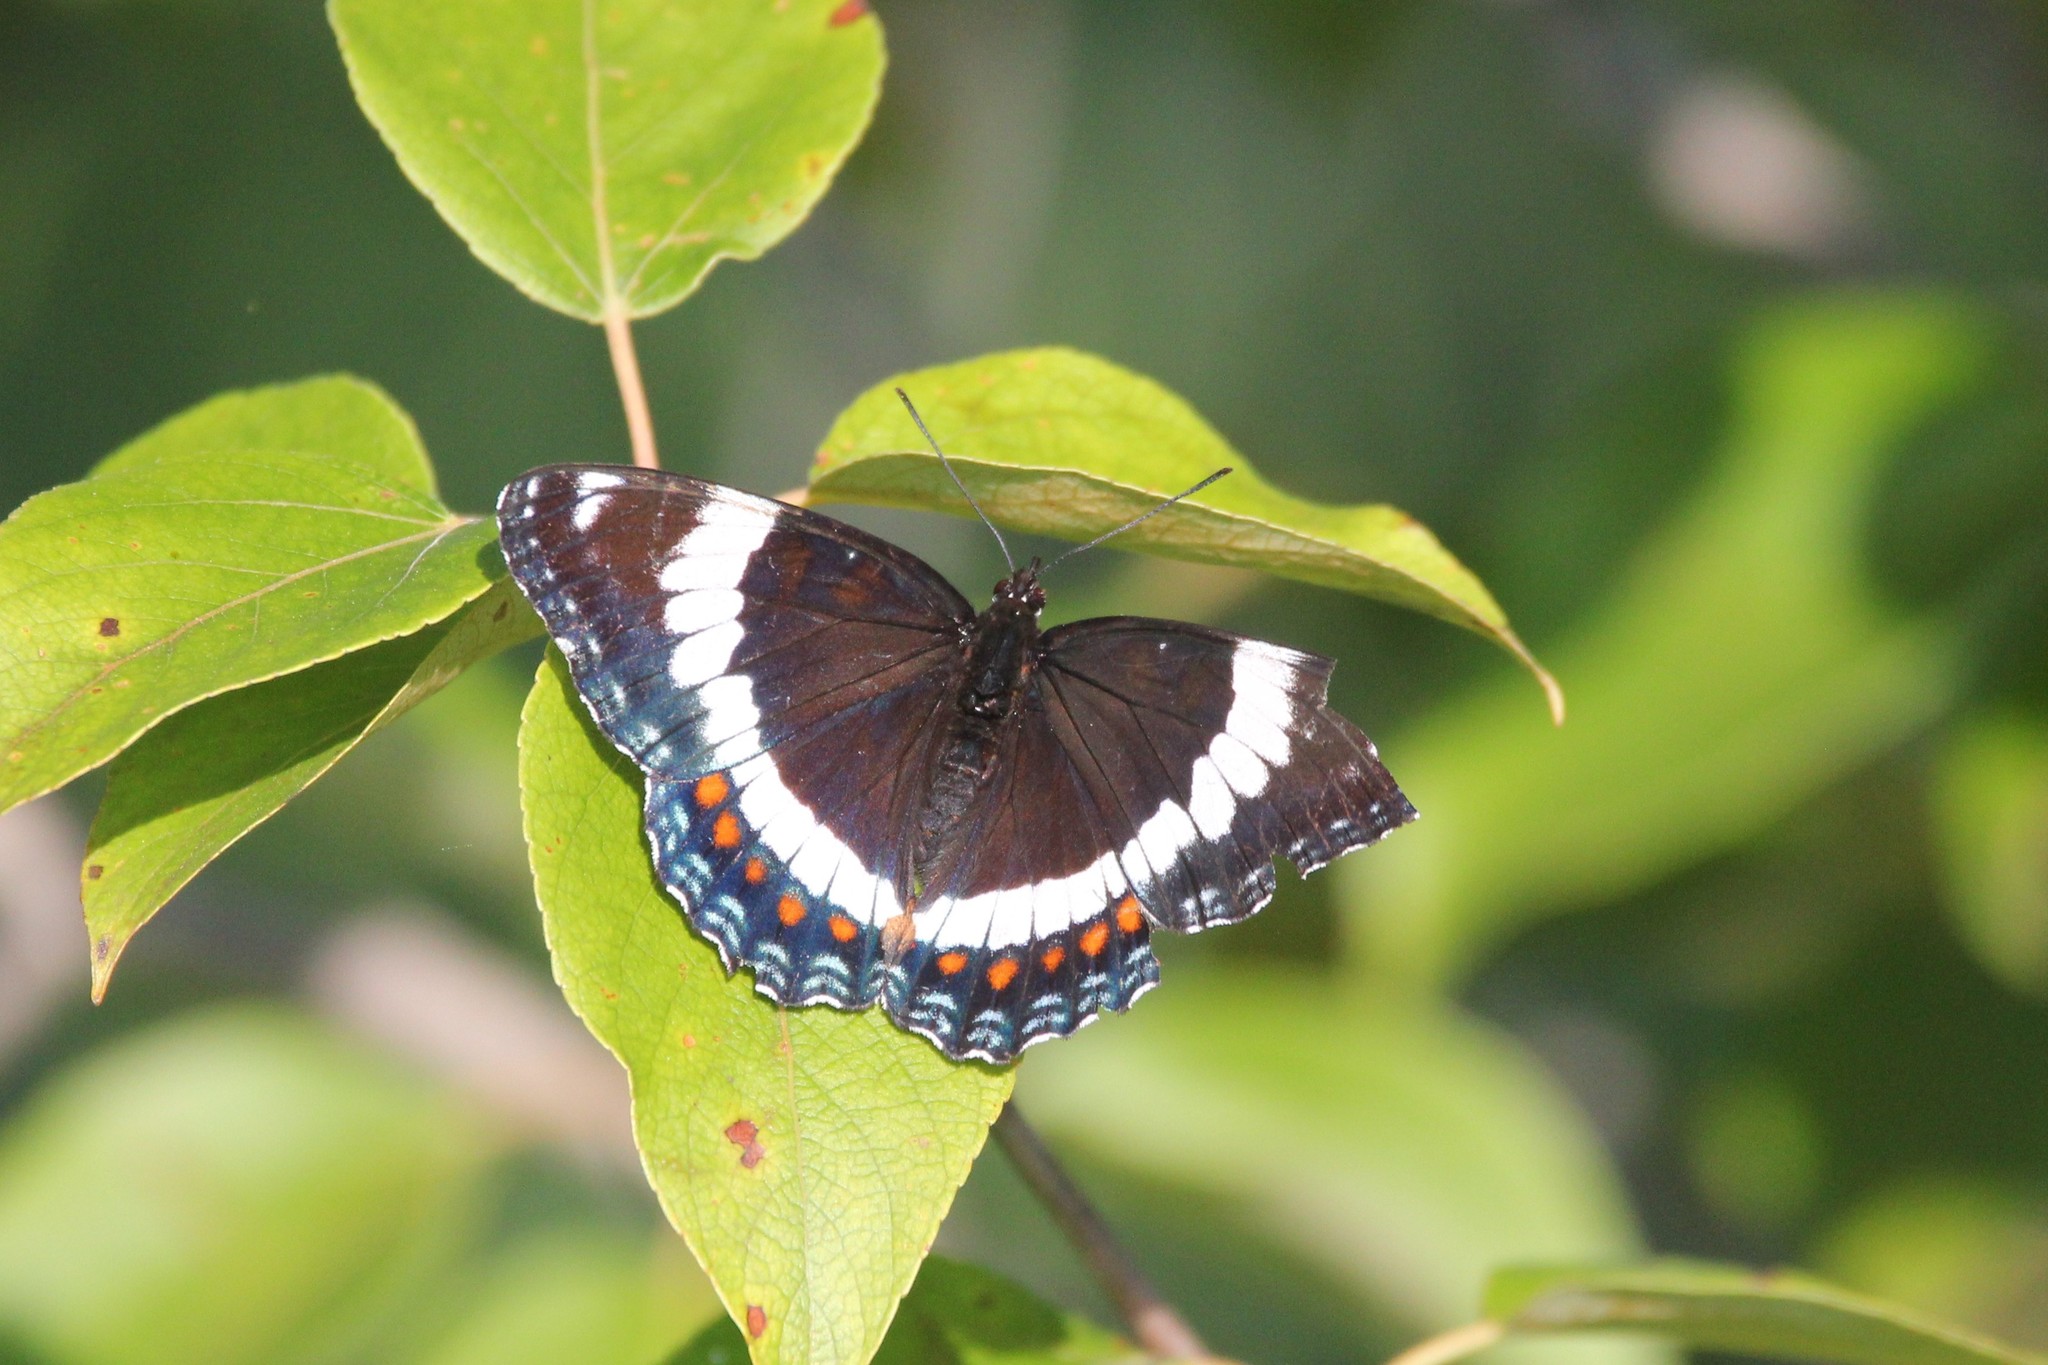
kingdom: Animalia
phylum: Arthropoda
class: Insecta
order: Lepidoptera
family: Nymphalidae
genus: Limenitis
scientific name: Limenitis arthemis
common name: Red-spotted admiral
